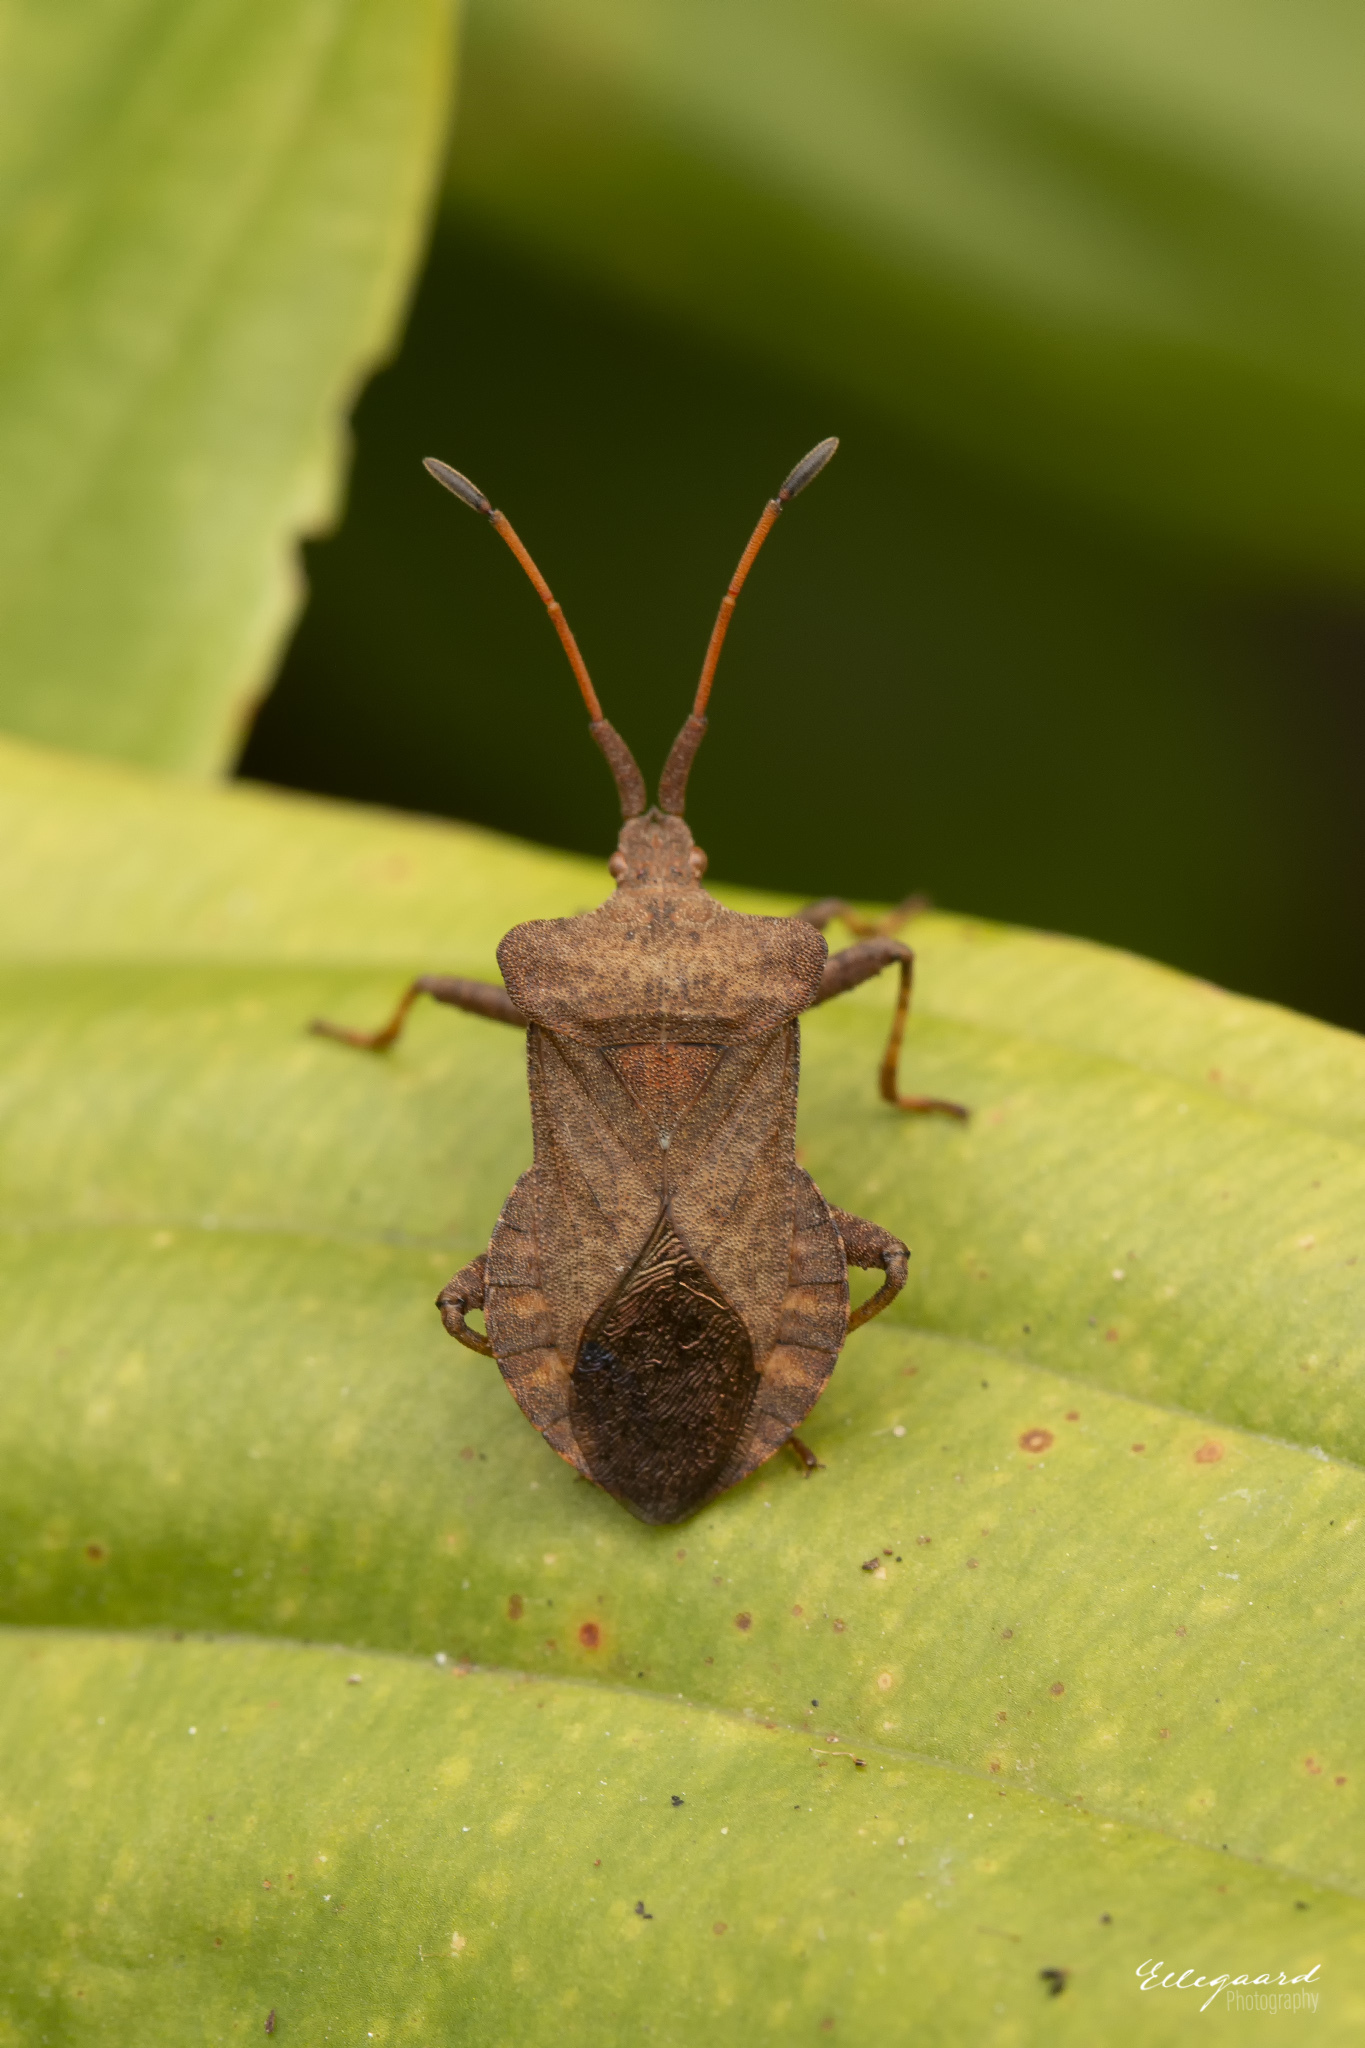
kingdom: Animalia
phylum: Arthropoda
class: Insecta
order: Hemiptera
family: Coreidae
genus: Coreus
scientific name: Coreus marginatus
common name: Dock bug
